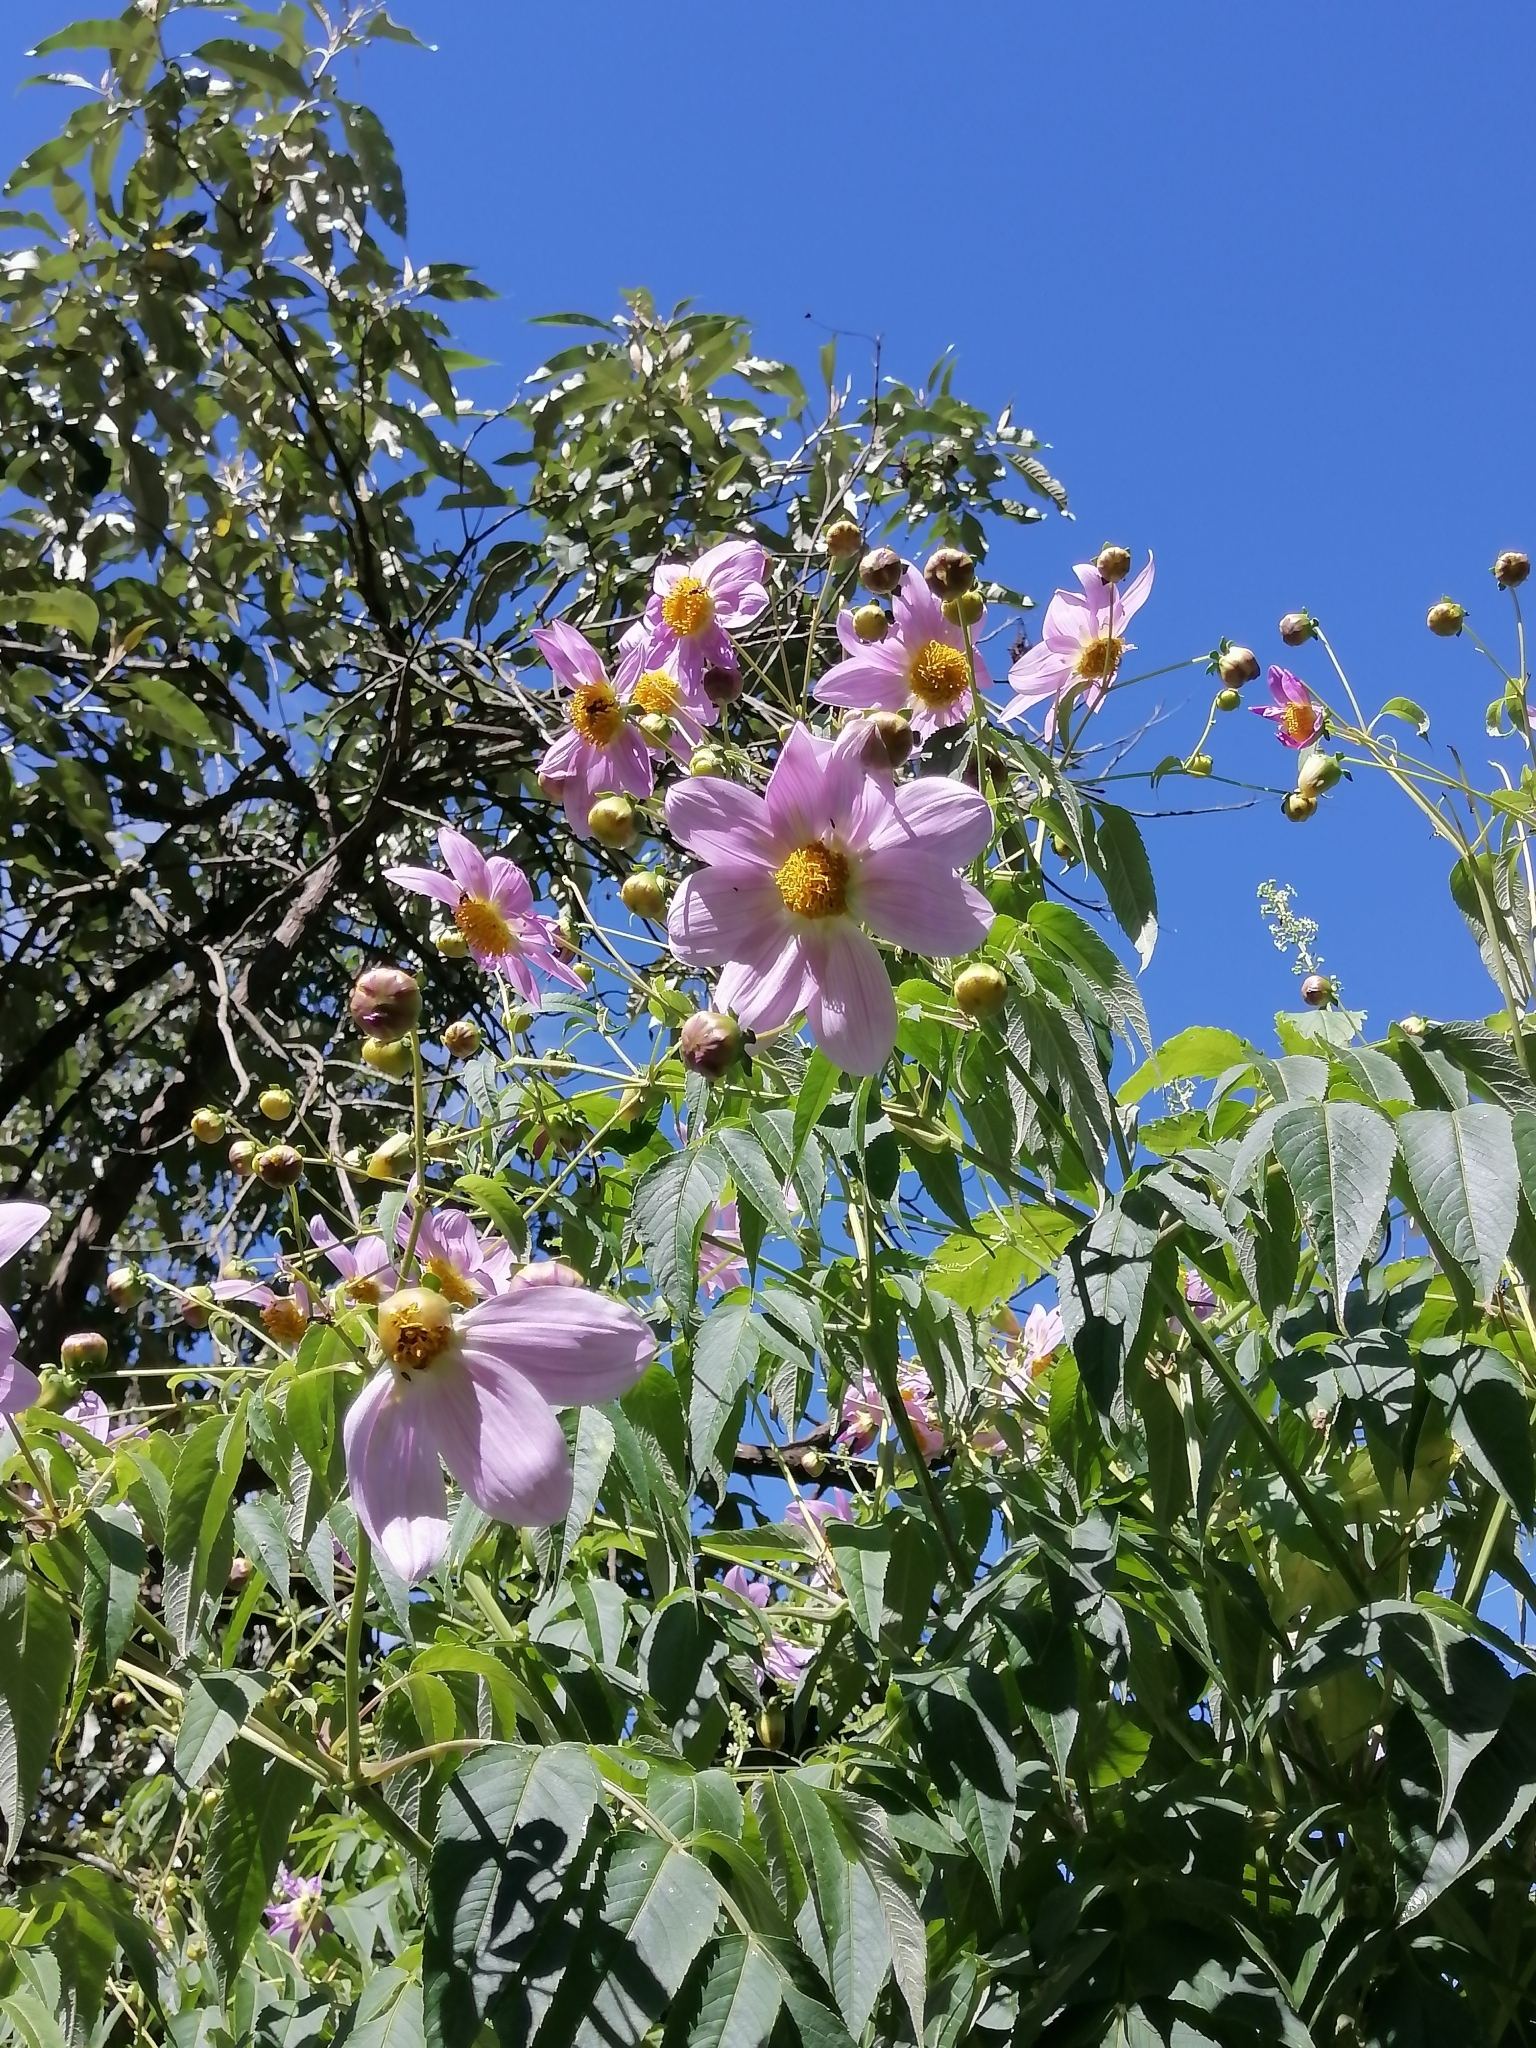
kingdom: Plantae
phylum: Tracheophyta
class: Magnoliopsida
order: Asterales
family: Asteraceae
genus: Dahlia
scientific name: Dahlia tenuicaulis
